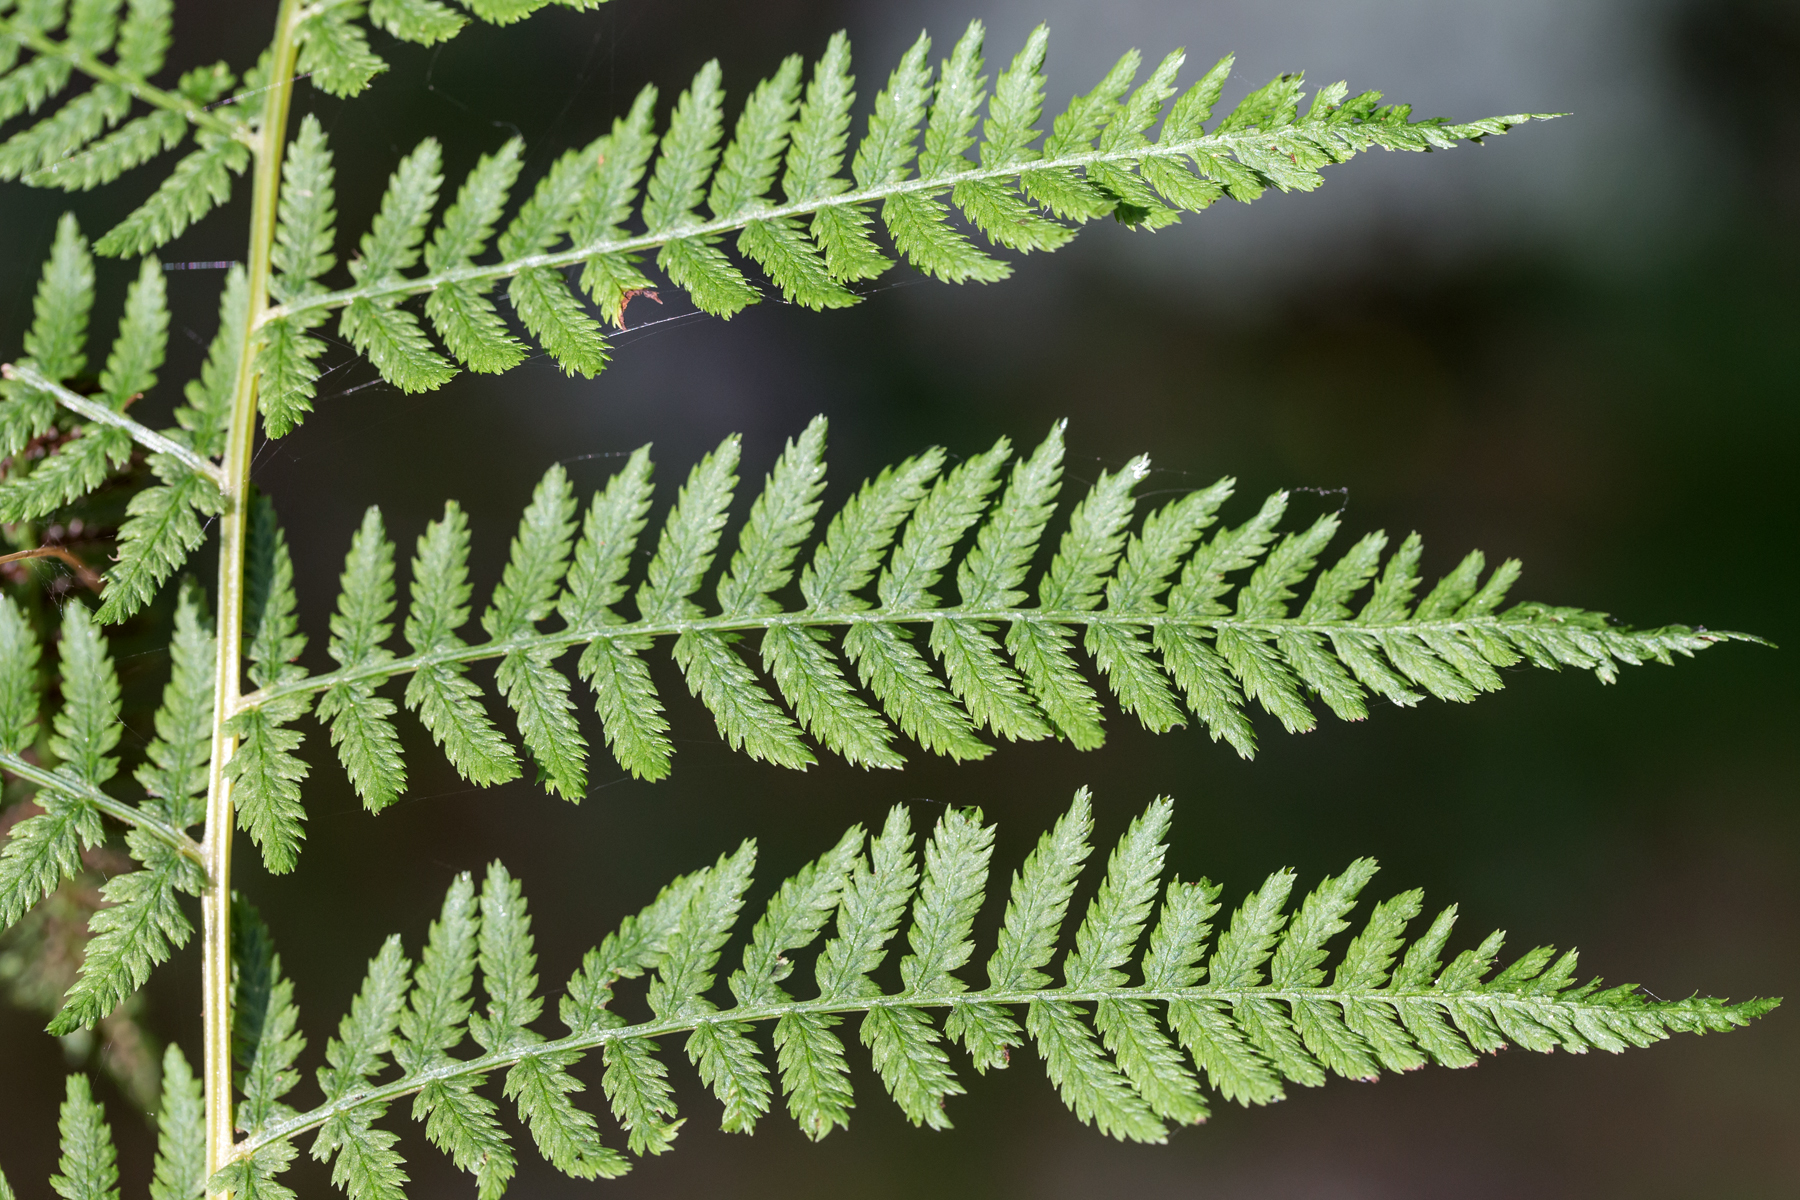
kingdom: Plantae
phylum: Tracheophyta
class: Polypodiopsida
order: Polypodiales
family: Athyriaceae
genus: Athyrium
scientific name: Athyrium angustum
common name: Northern lady fern
